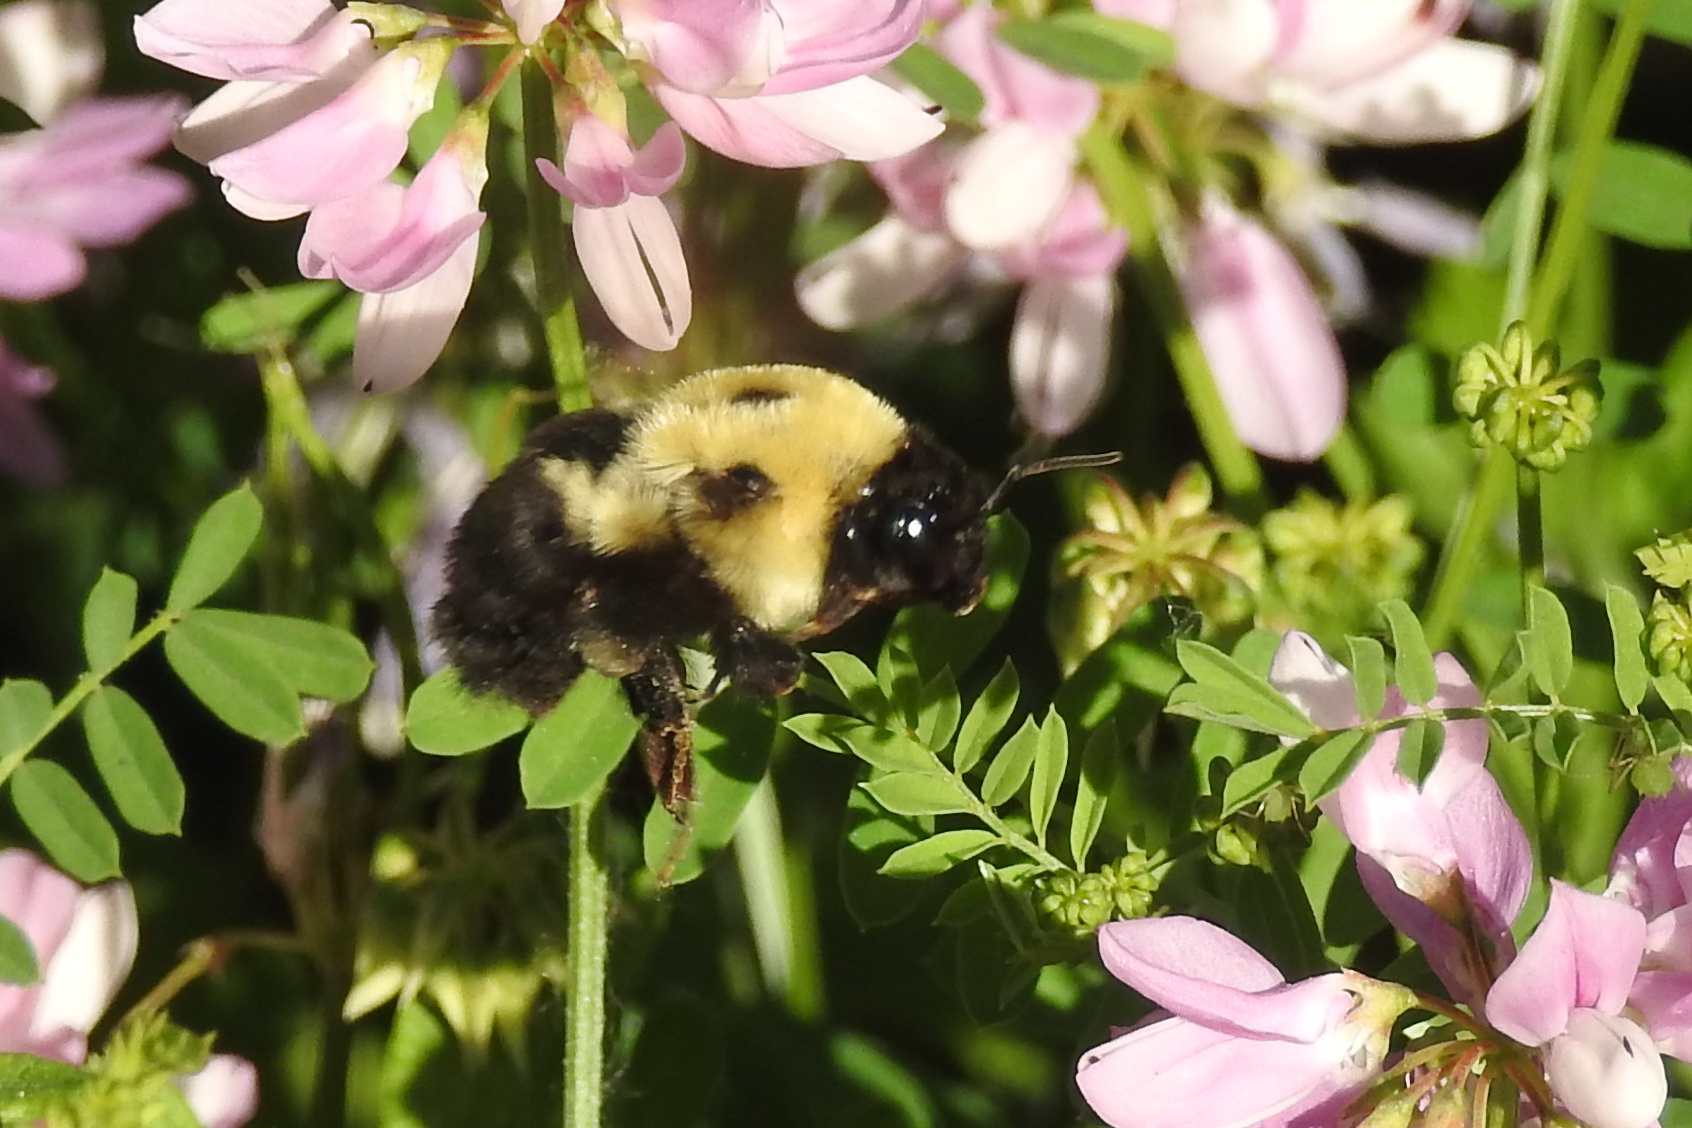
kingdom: Animalia
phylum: Arthropoda
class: Insecta
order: Hymenoptera
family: Apidae
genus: Bombus
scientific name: Bombus griseocollis
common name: Brown-belted bumble bee
